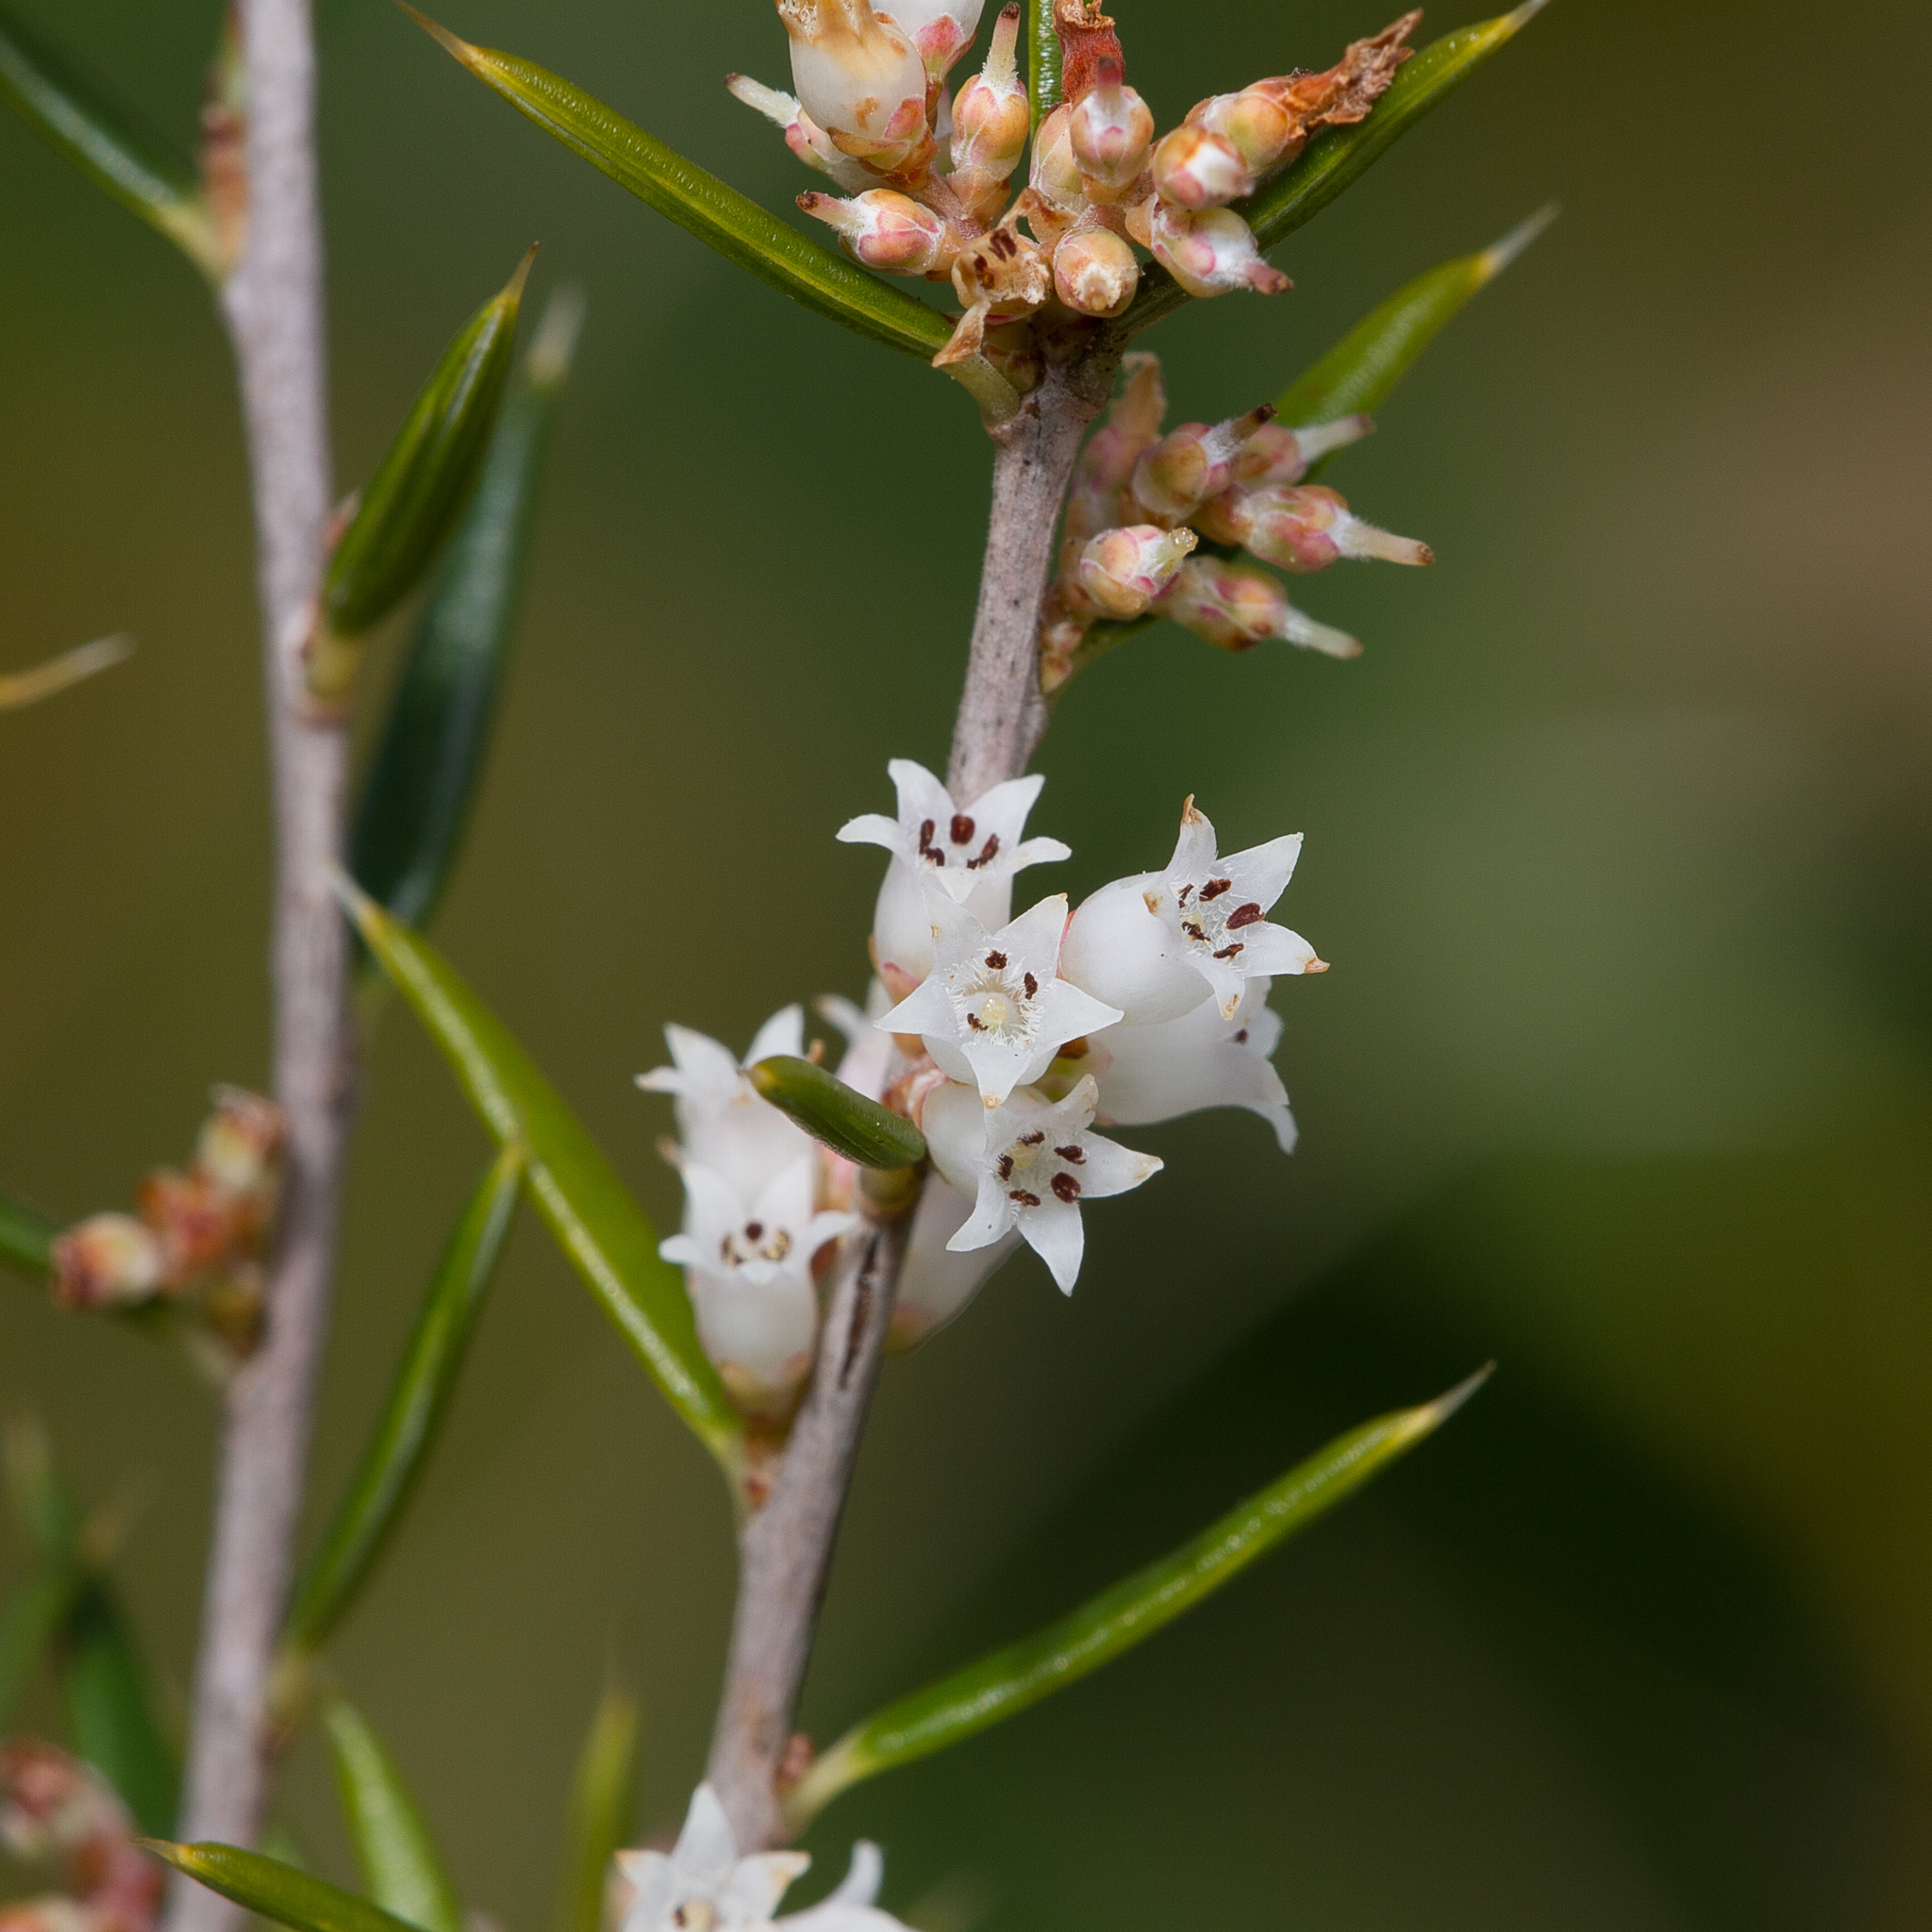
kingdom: Plantae
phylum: Tracheophyta
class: Magnoliopsida
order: Ericales
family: Ericaceae
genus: Lissanthe
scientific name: Lissanthe strigosa
